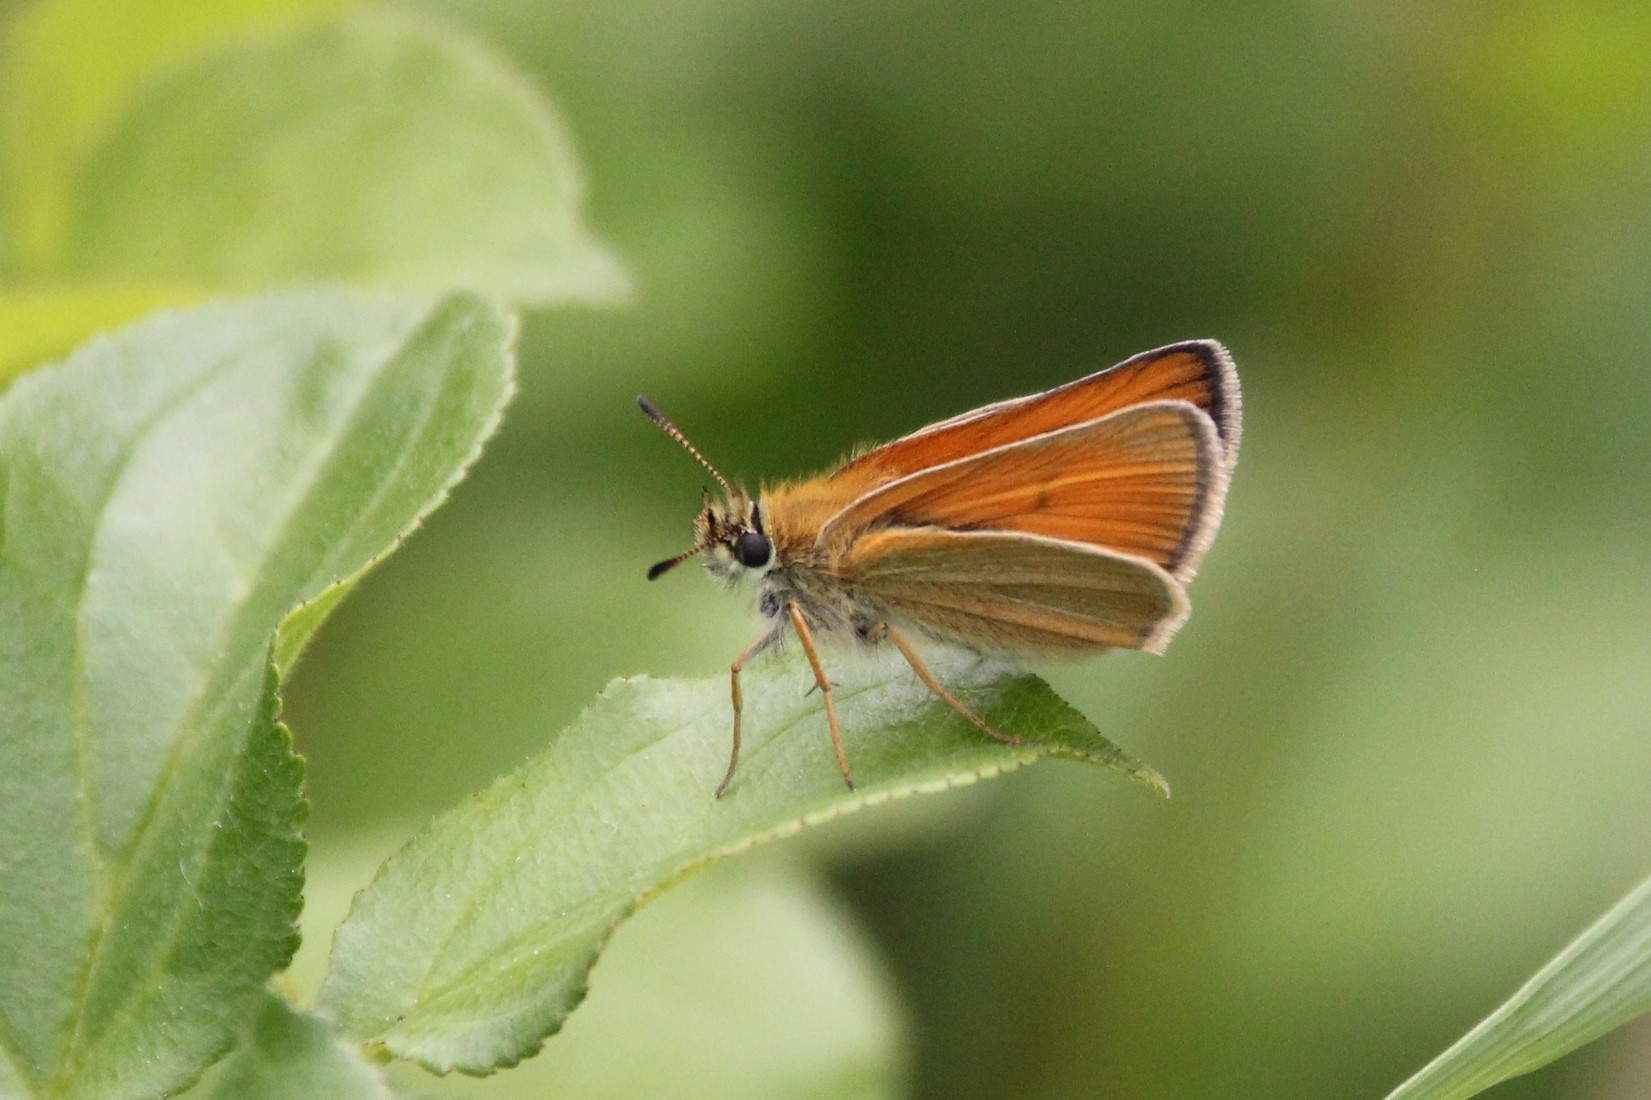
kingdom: Animalia
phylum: Arthropoda
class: Insecta
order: Lepidoptera
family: Hesperiidae
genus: Thymelicus
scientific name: Thymelicus lineola
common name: Essex skipper
